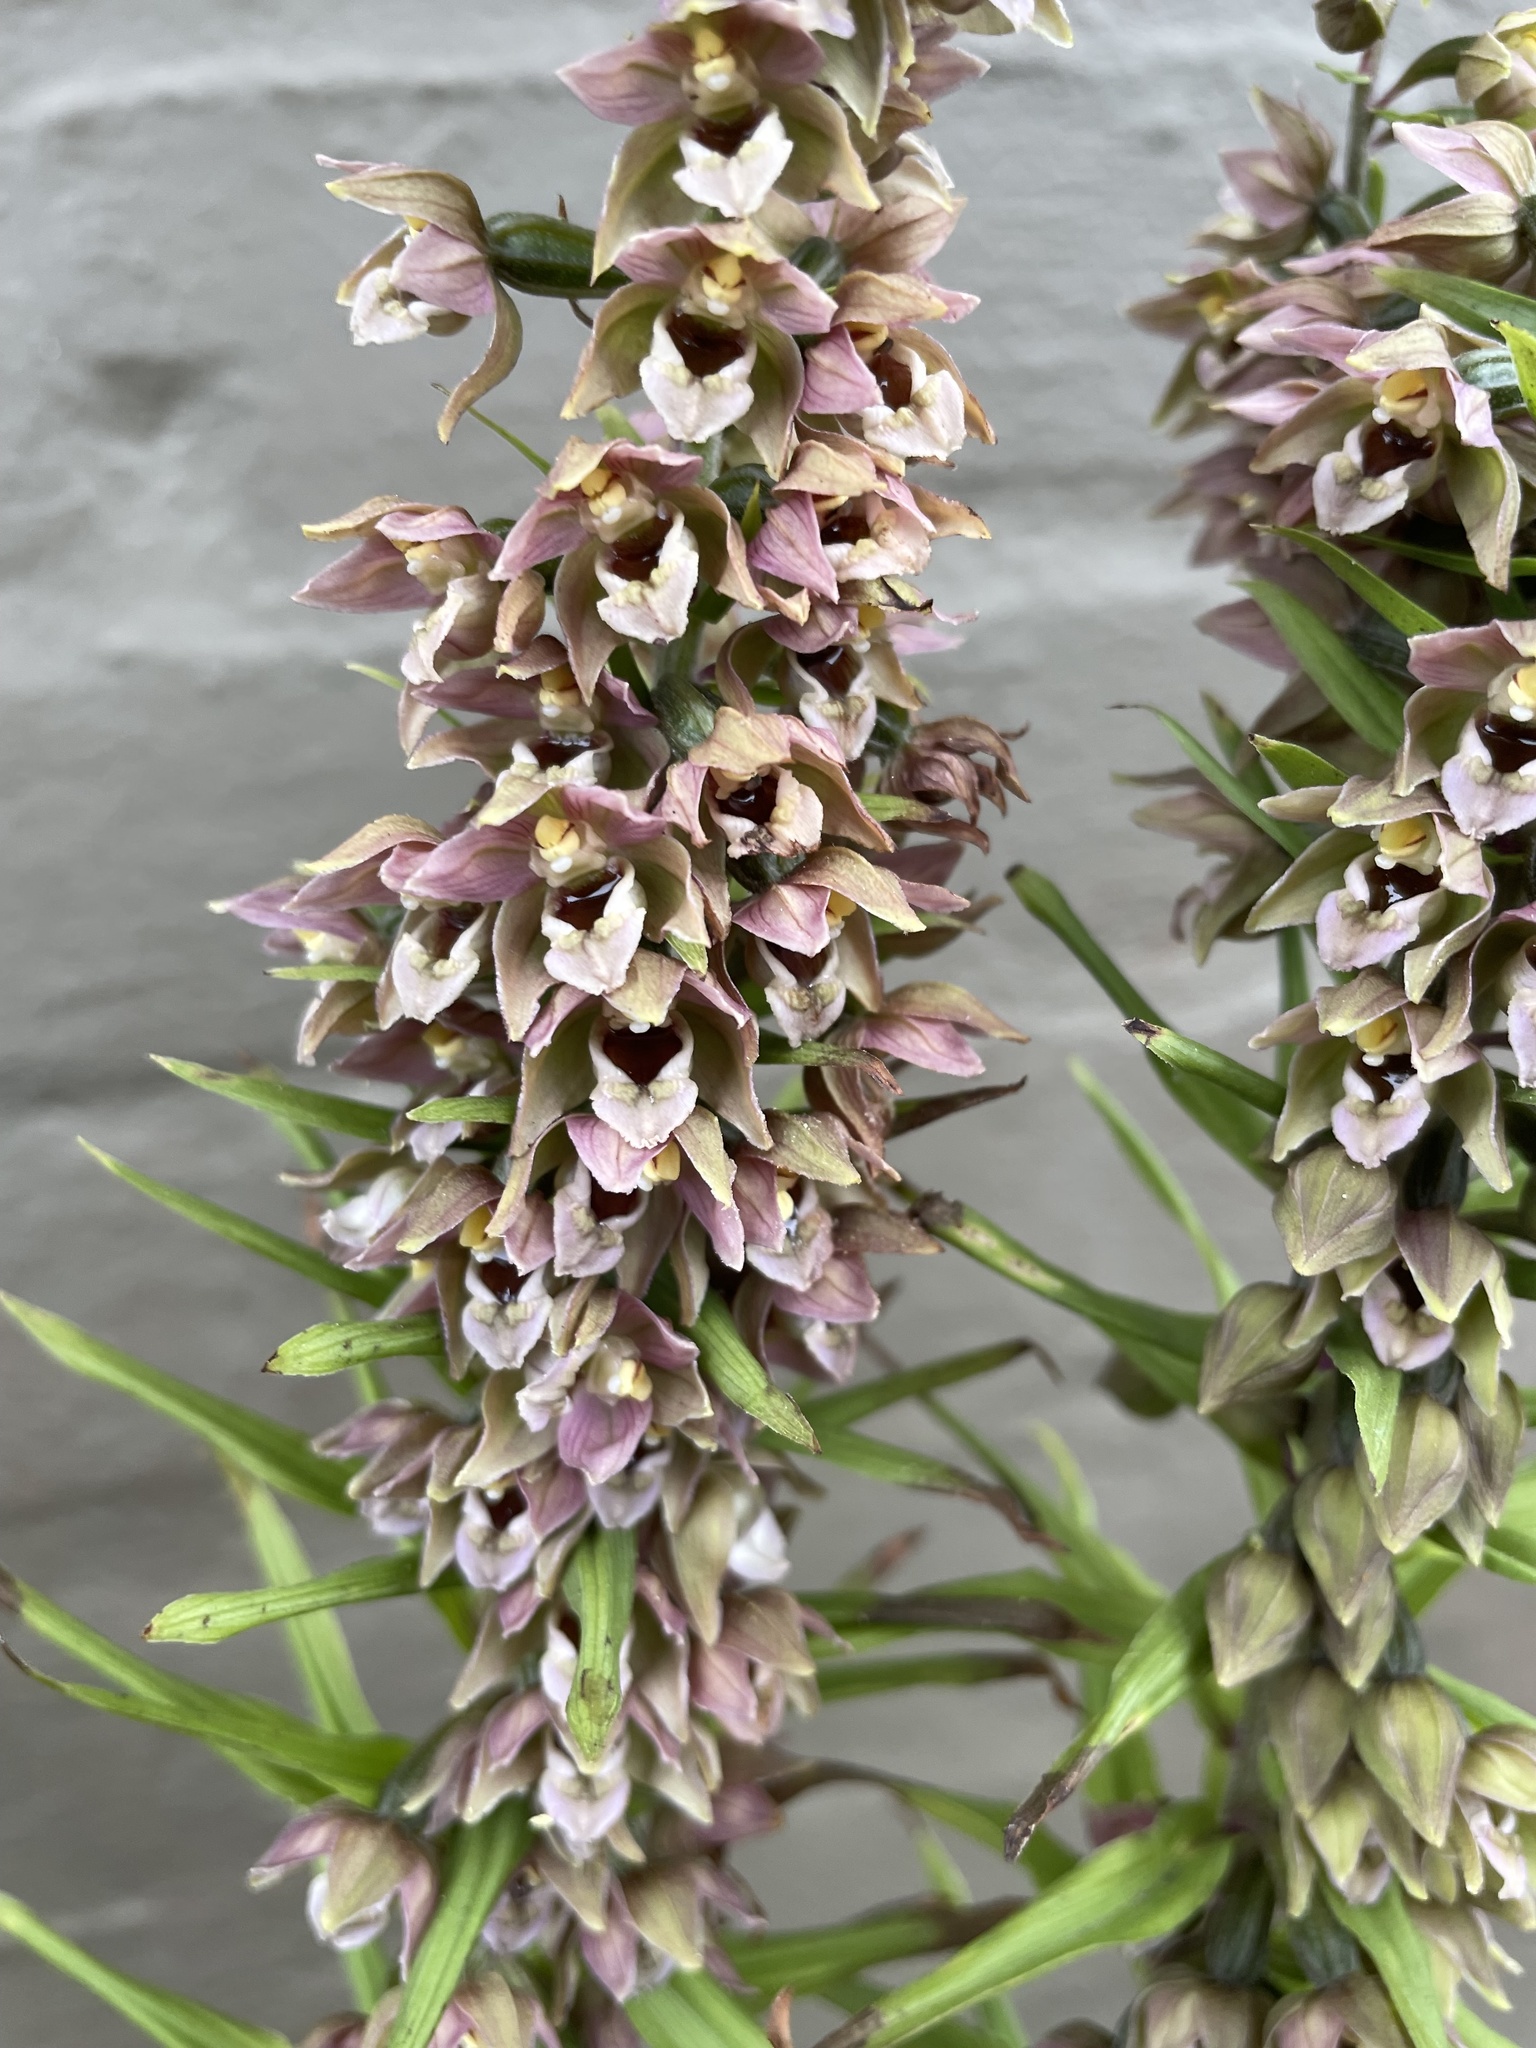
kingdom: Plantae
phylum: Tracheophyta
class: Liliopsida
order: Asparagales
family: Orchidaceae
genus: Epipactis
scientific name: Epipactis helleborine
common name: Broad-leaved helleborine
